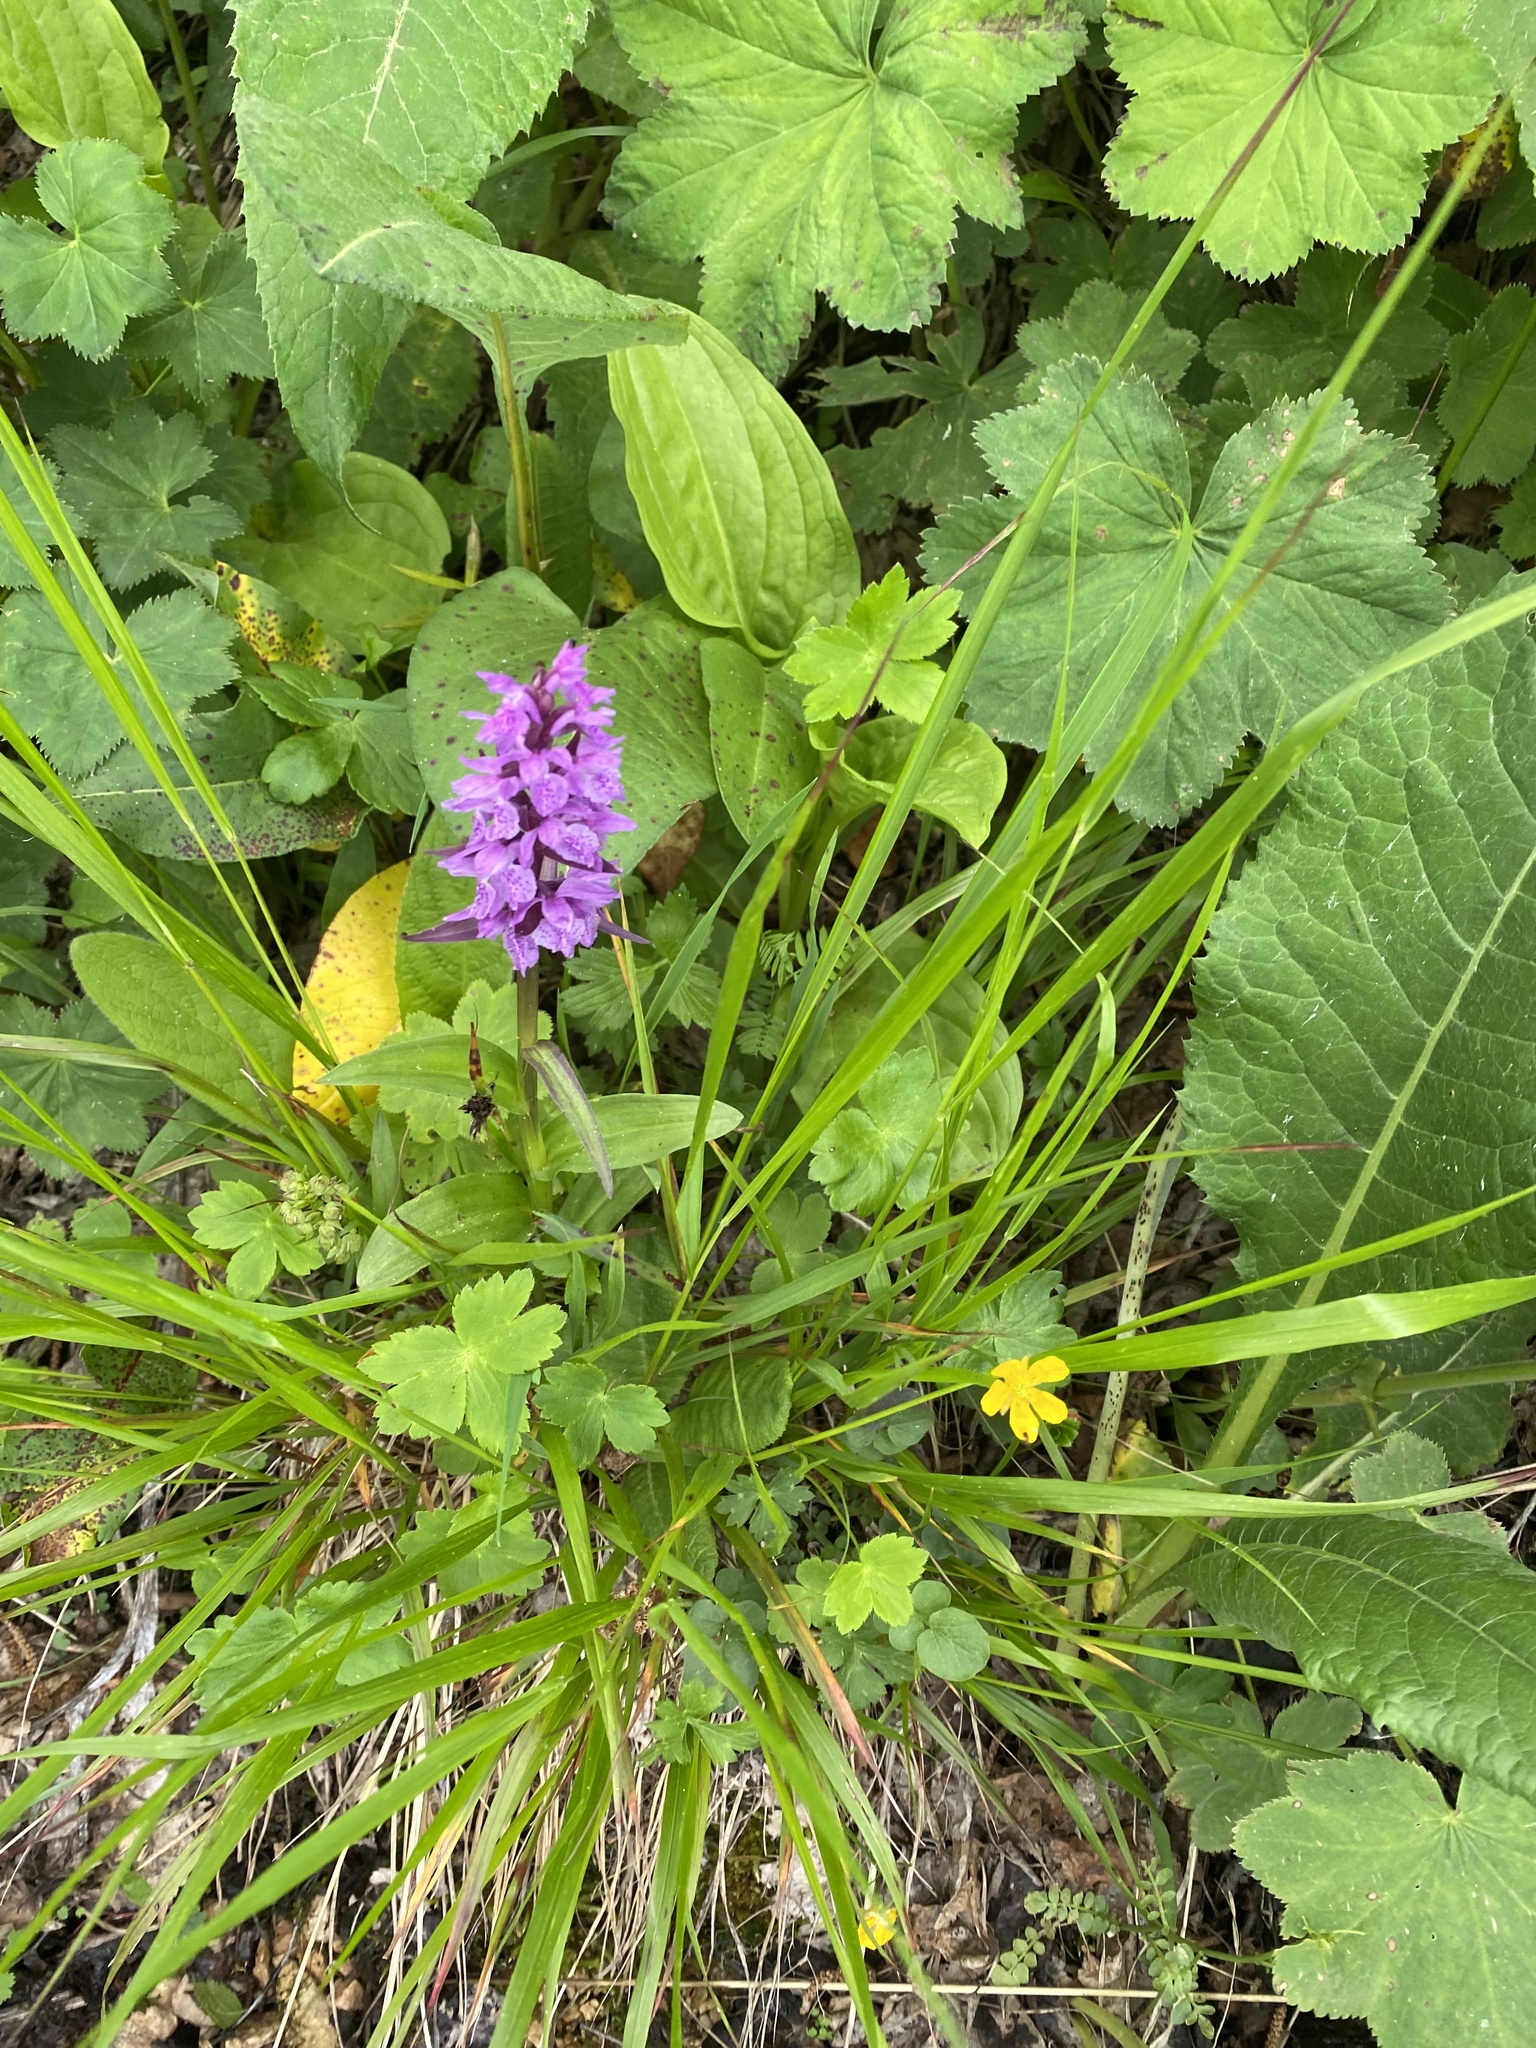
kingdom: Plantae
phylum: Tracheophyta
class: Liliopsida
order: Asparagales
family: Orchidaceae
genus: Dactylorhiza
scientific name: Dactylorhiza euxina
